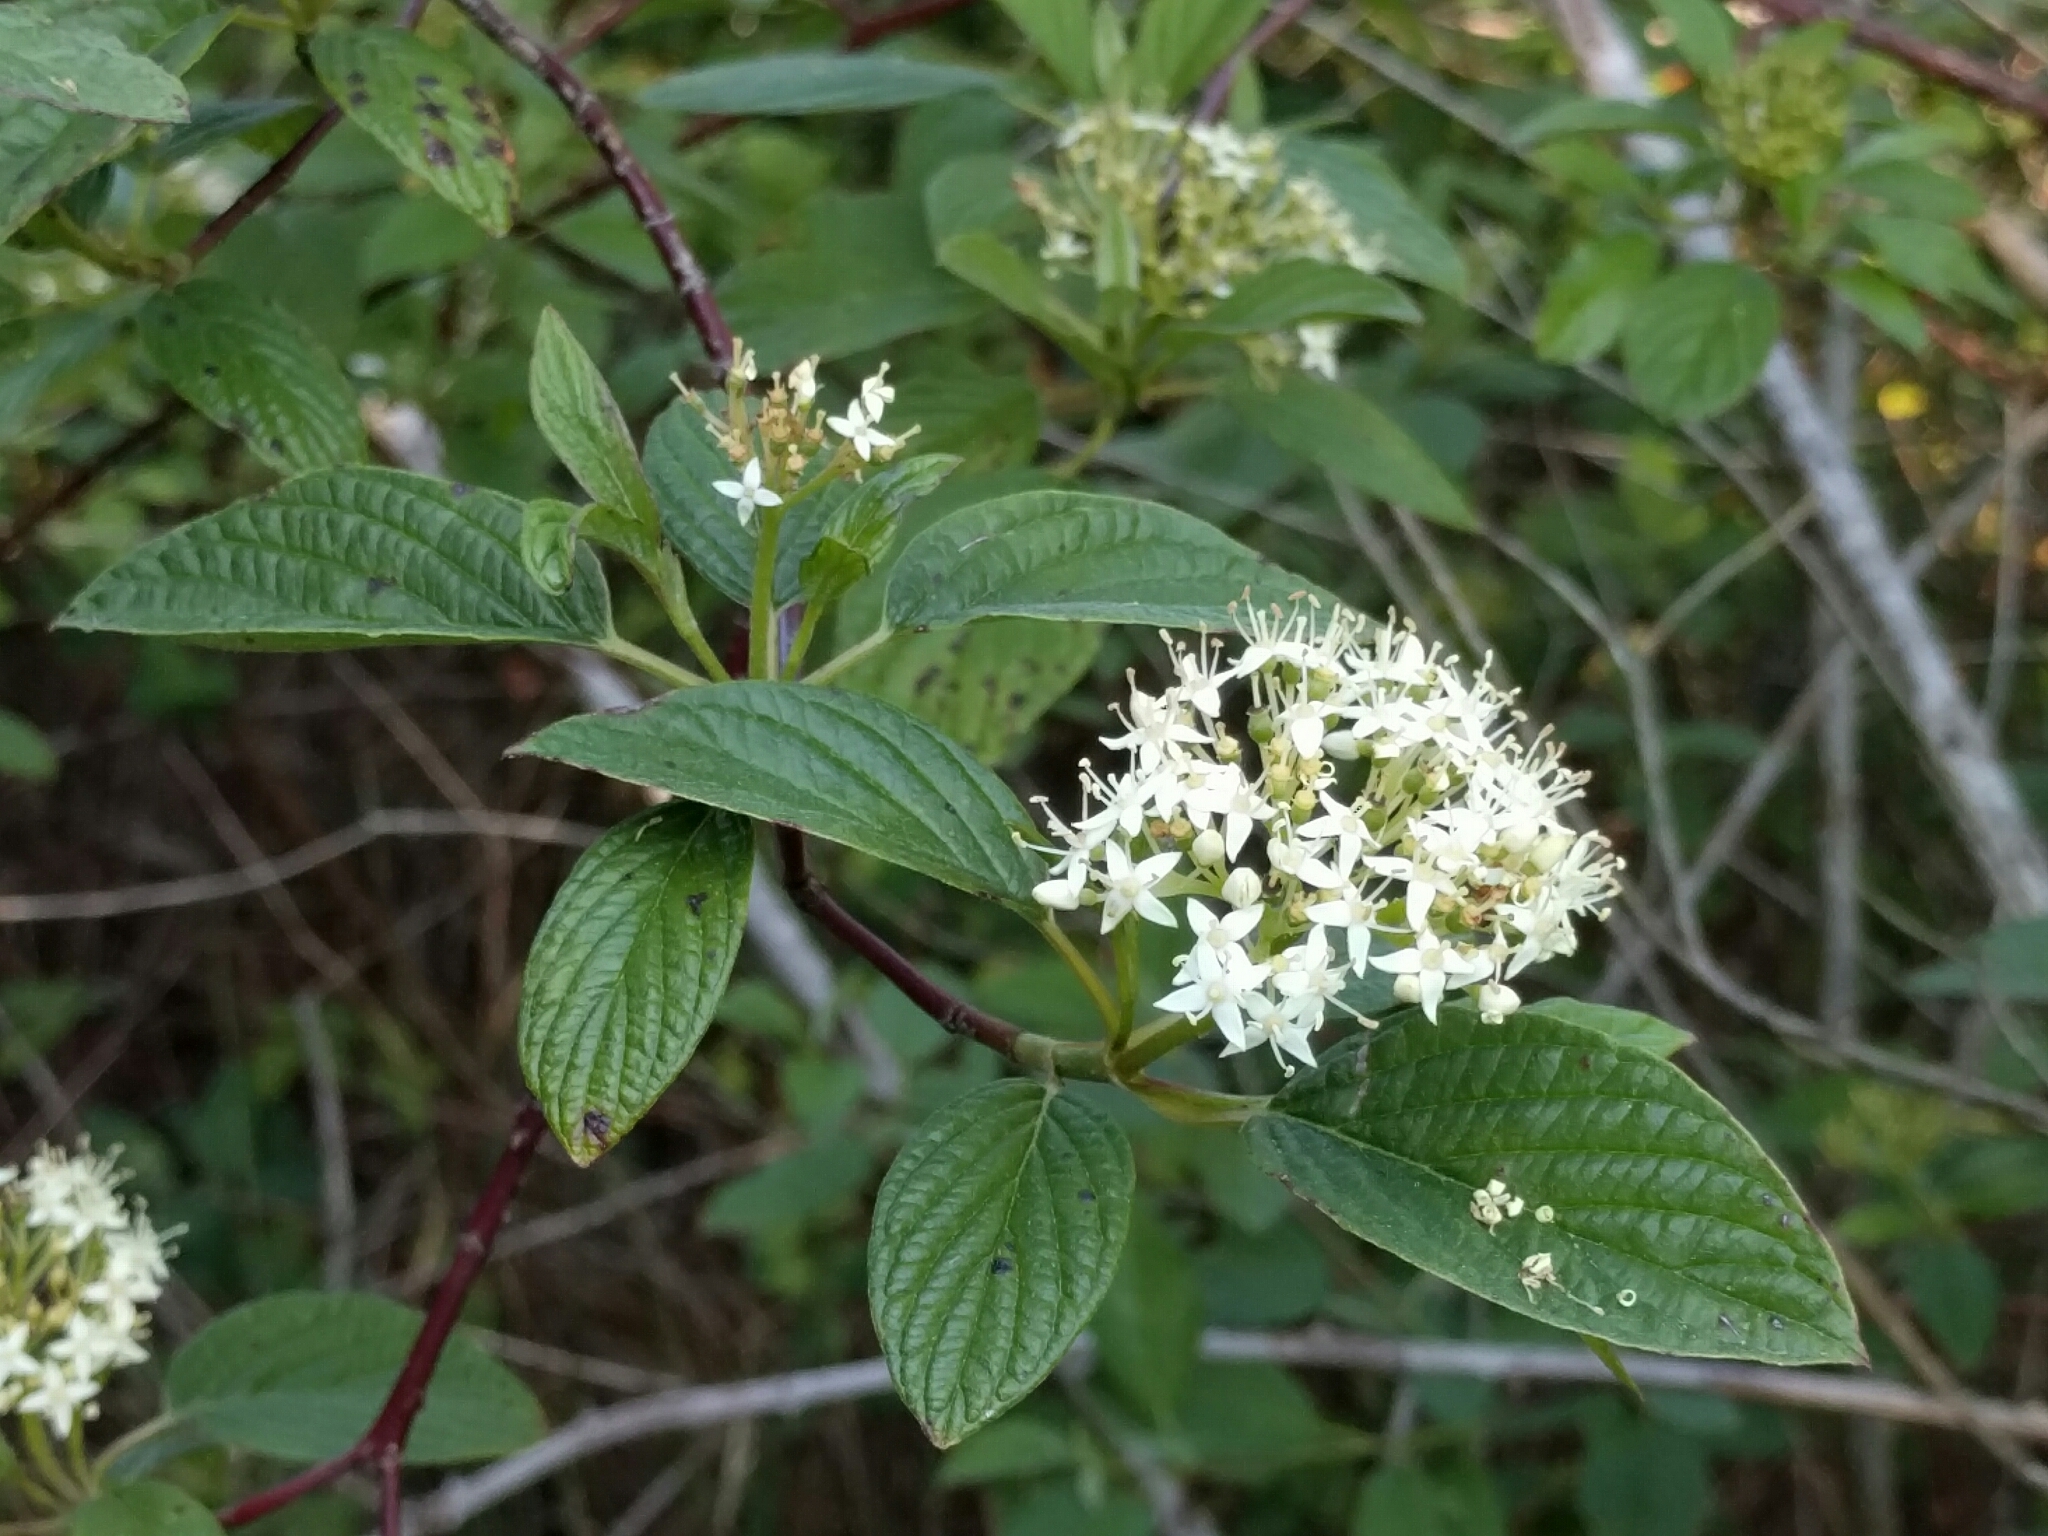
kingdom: Plantae
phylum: Tracheophyta
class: Magnoliopsida
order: Cornales
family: Cornaceae
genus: Cornus
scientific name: Cornus sericea
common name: Red-osier dogwood
